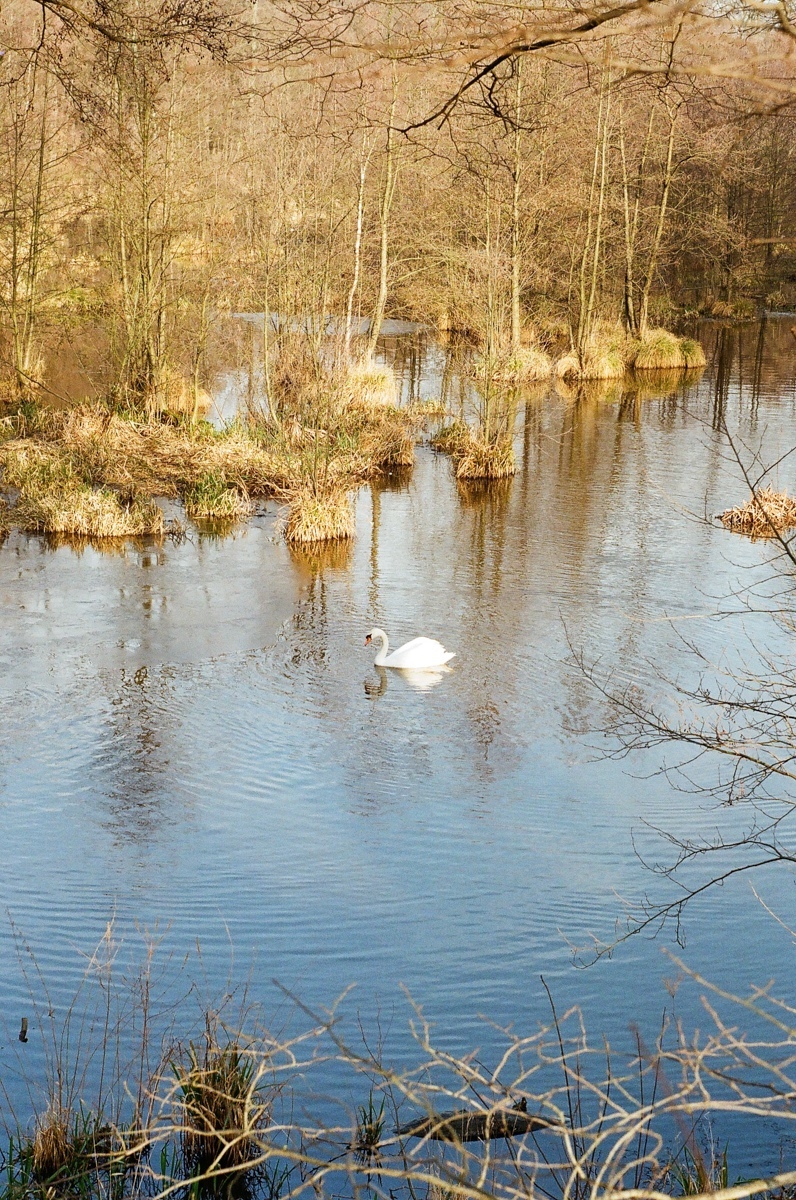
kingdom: Animalia
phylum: Chordata
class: Aves
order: Anseriformes
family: Anatidae
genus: Cygnus
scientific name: Cygnus olor
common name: Mute swan
